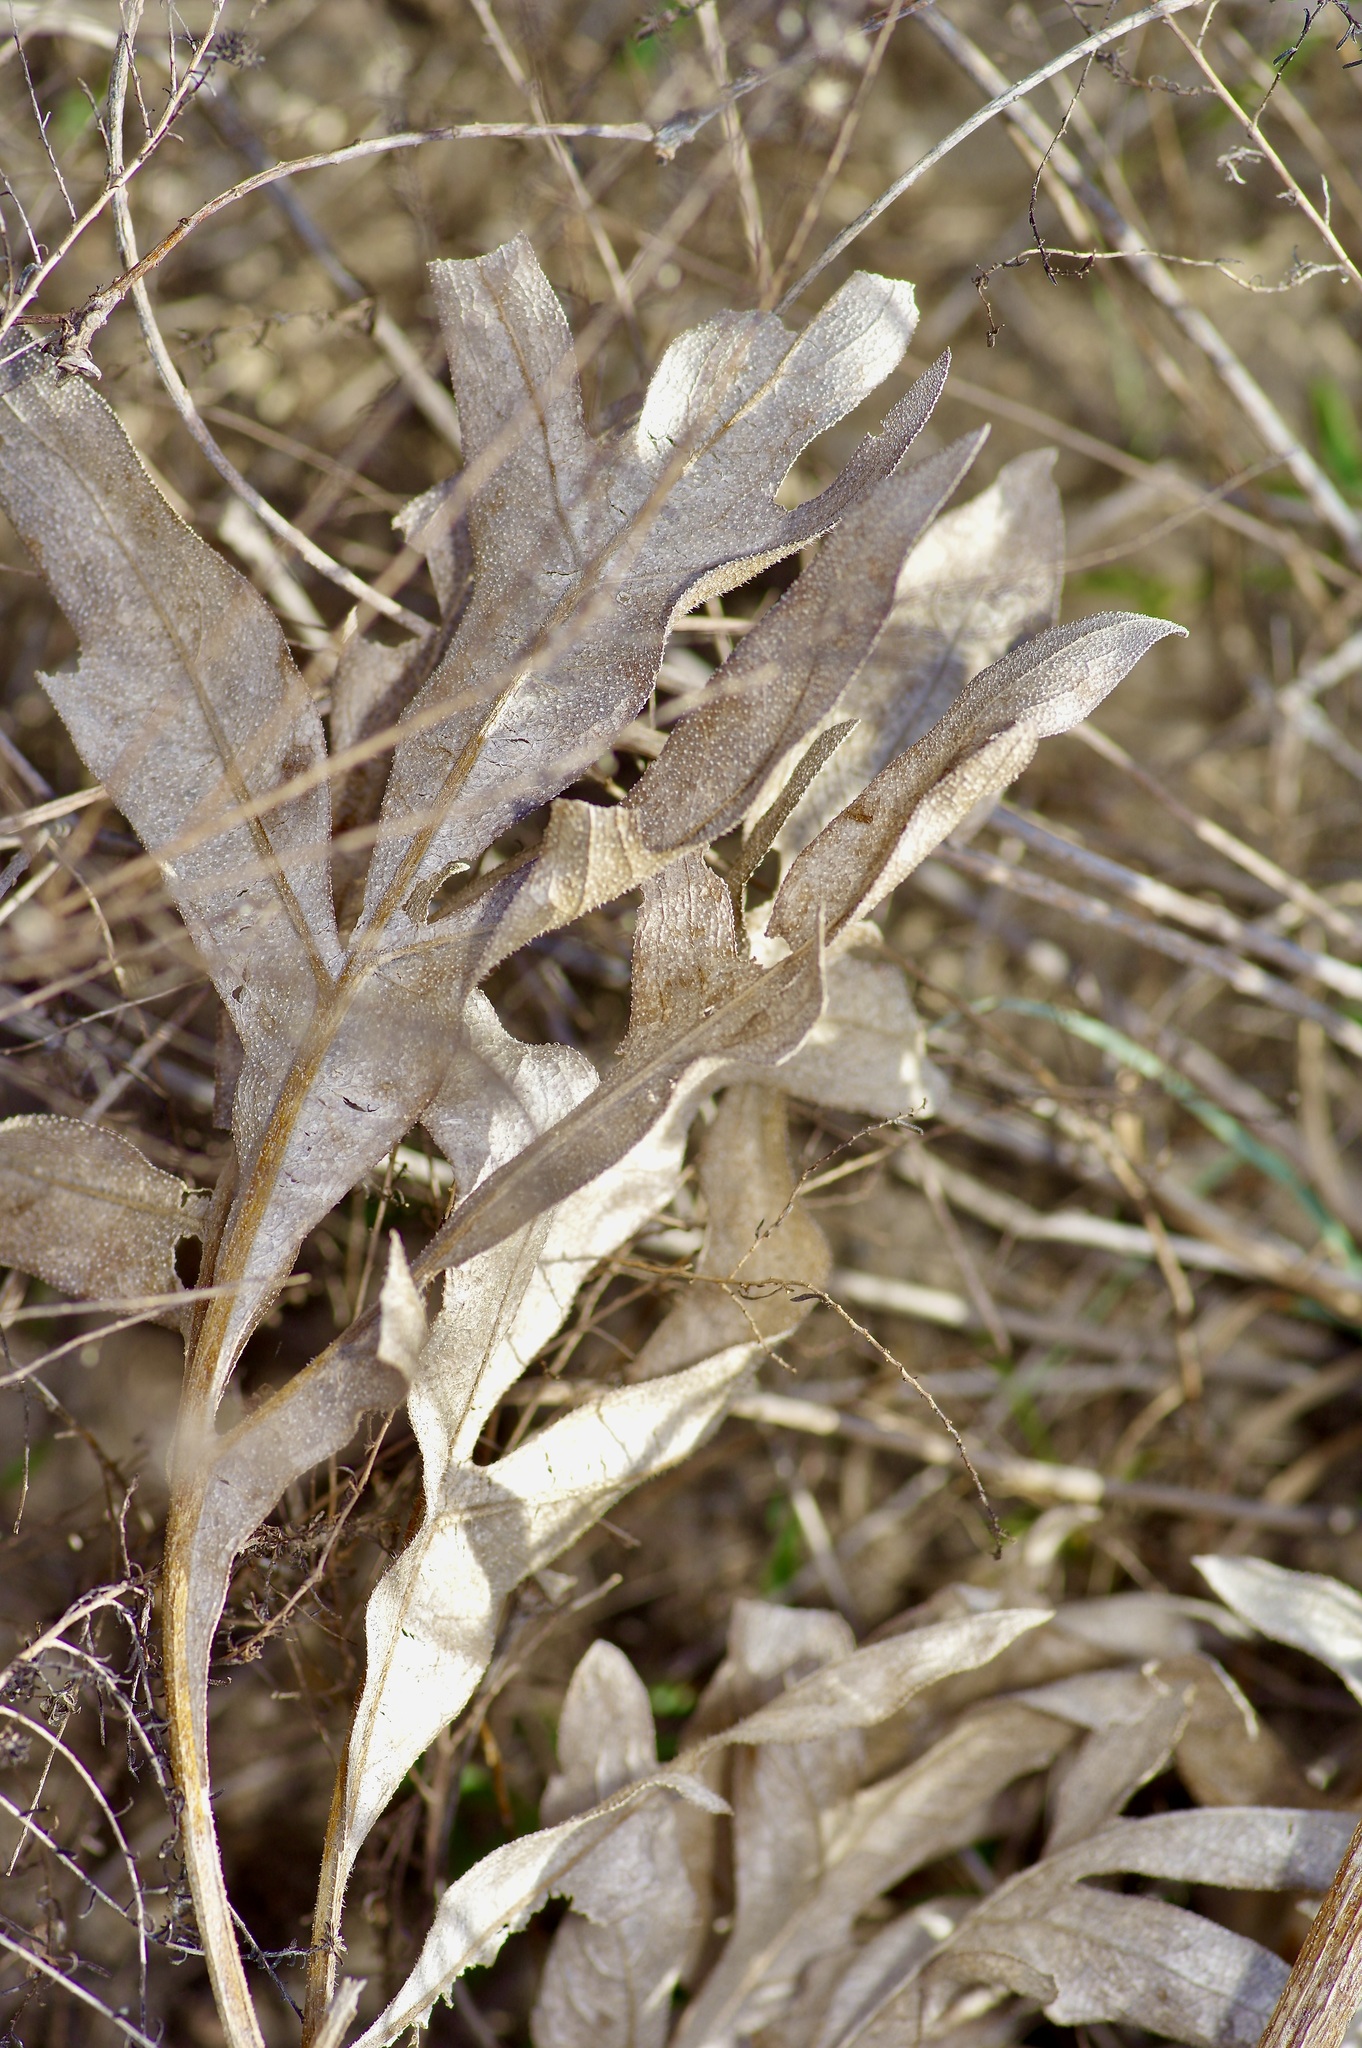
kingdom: Plantae
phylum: Tracheophyta
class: Magnoliopsida
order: Asterales
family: Asteraceae
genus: Silphium
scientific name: Silphium albiflorum
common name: White rosinweed
